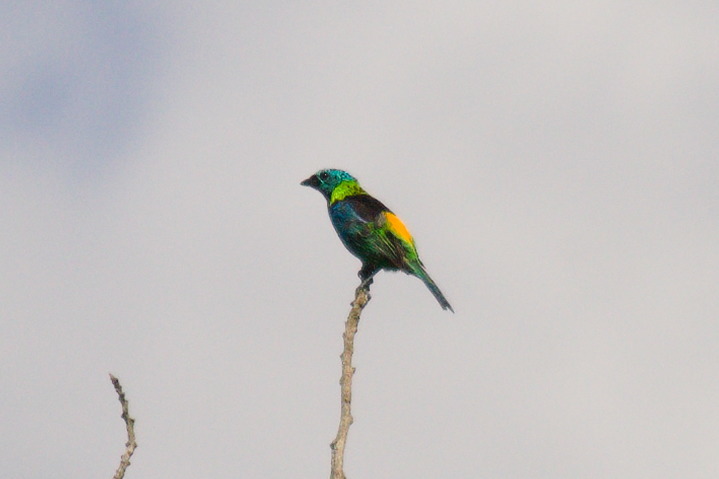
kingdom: Animalia
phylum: Chordata
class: Aves
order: Passeriformes
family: Thraupidae
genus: Tangara
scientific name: Tangara seledon
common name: Green-headed tanager
